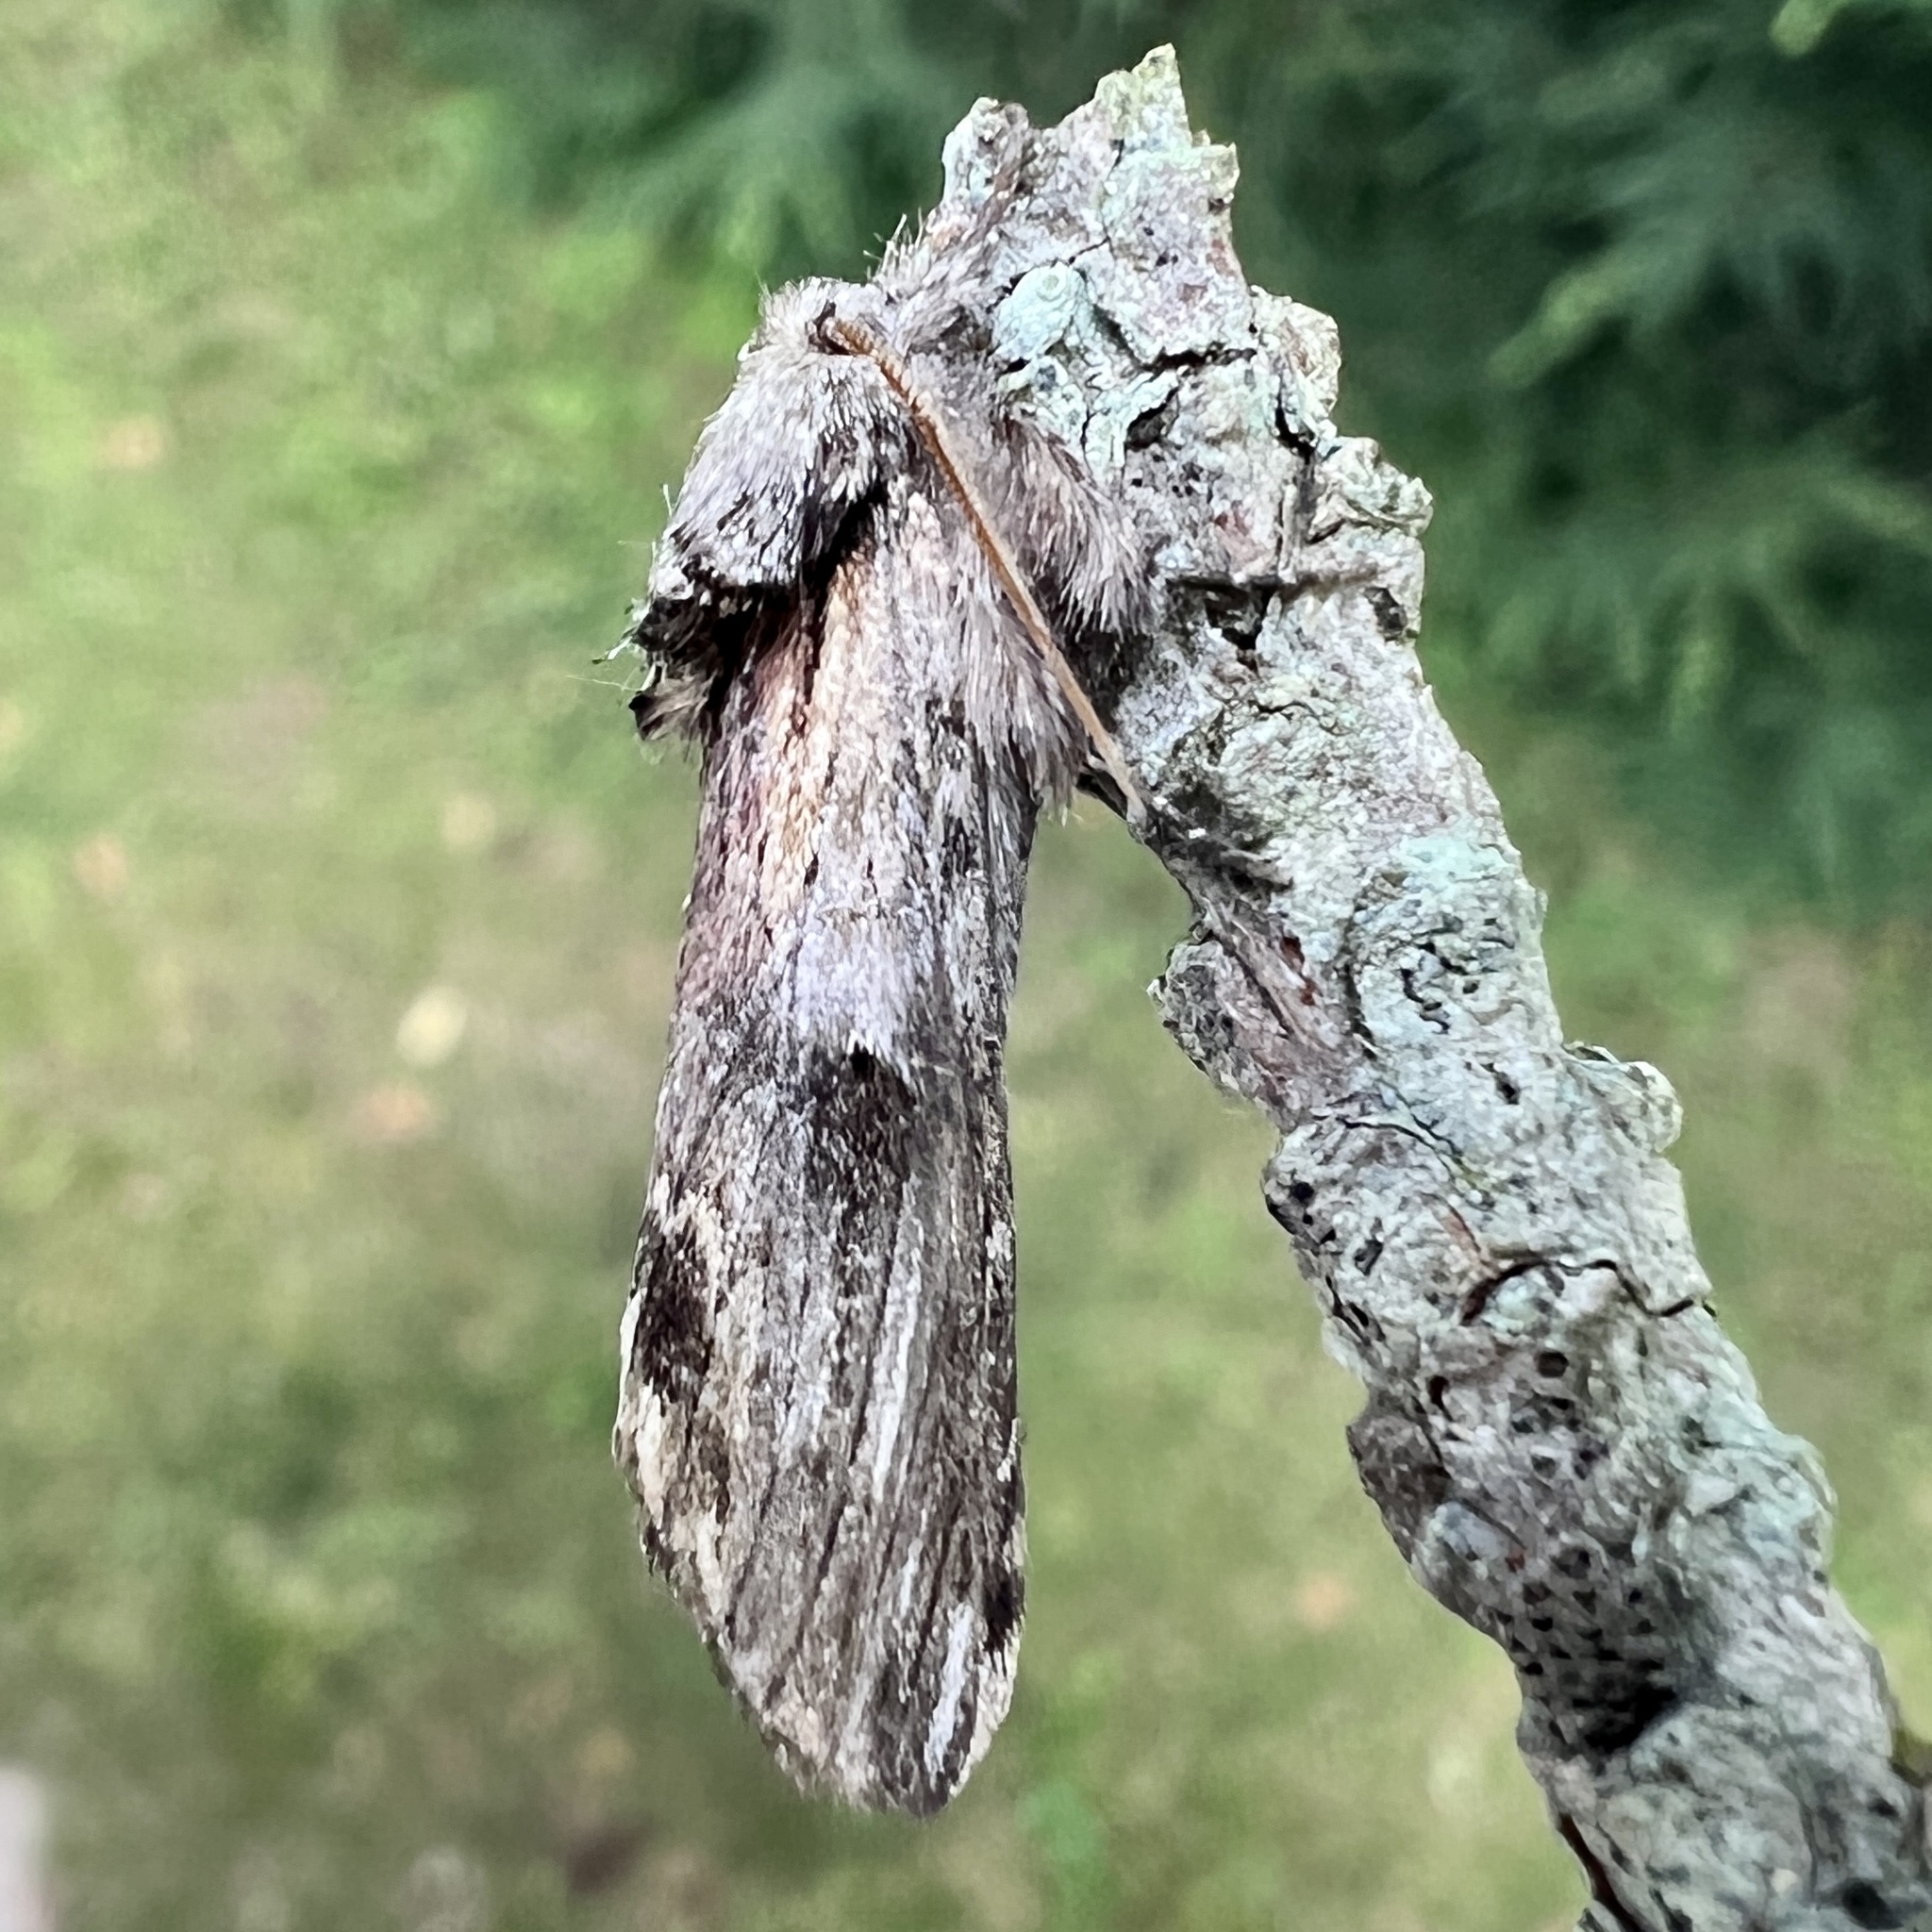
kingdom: Animalia
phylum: Arthropoda
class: Insecta
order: Lepidoptera
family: Notodontidae
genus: Schizura
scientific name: Schizura
